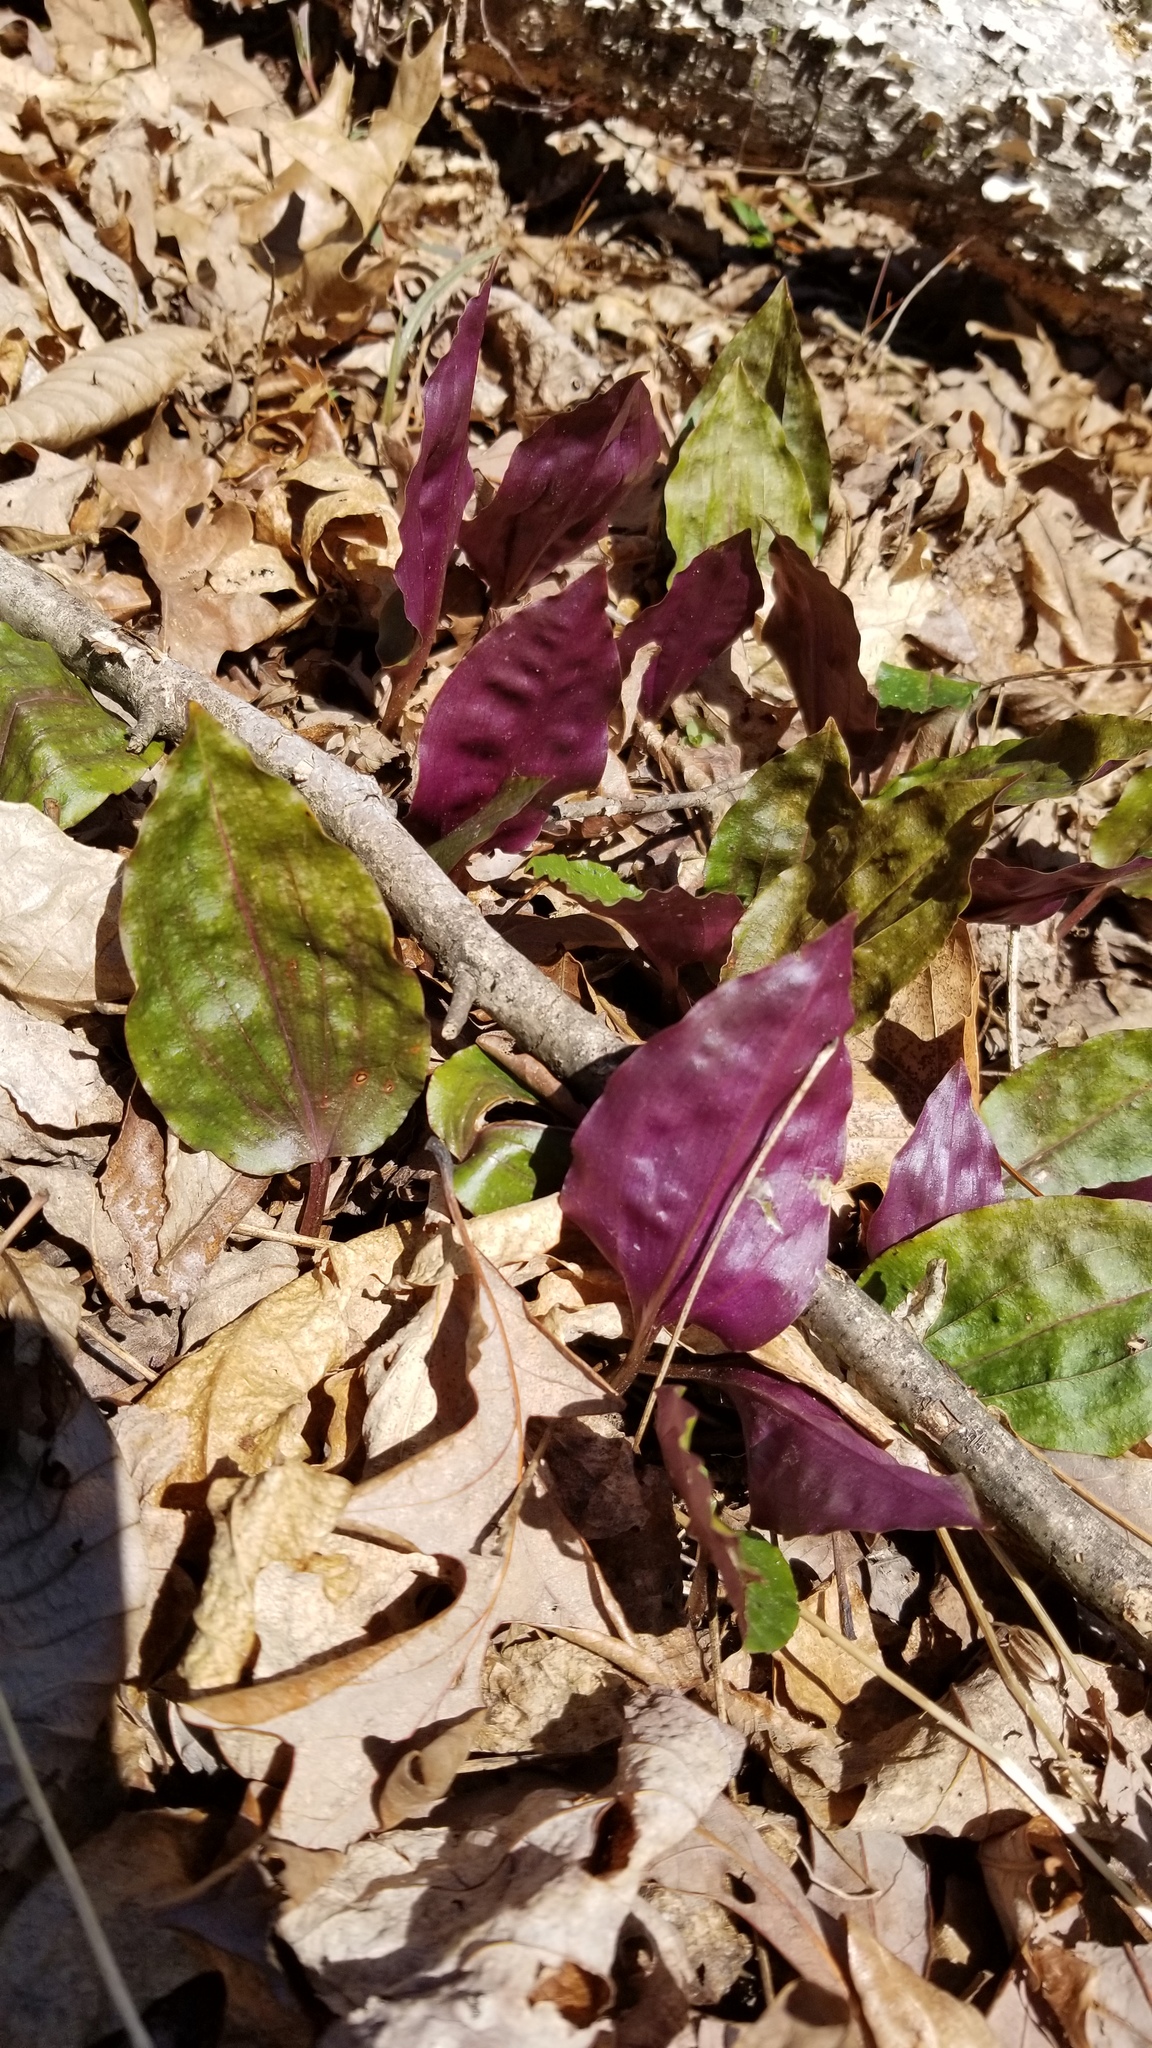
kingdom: Plantae
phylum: Tracheophyta
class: Liliopsida
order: Asparagales
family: Orchidaceae
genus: Tipularia
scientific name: Tipularia discolor
